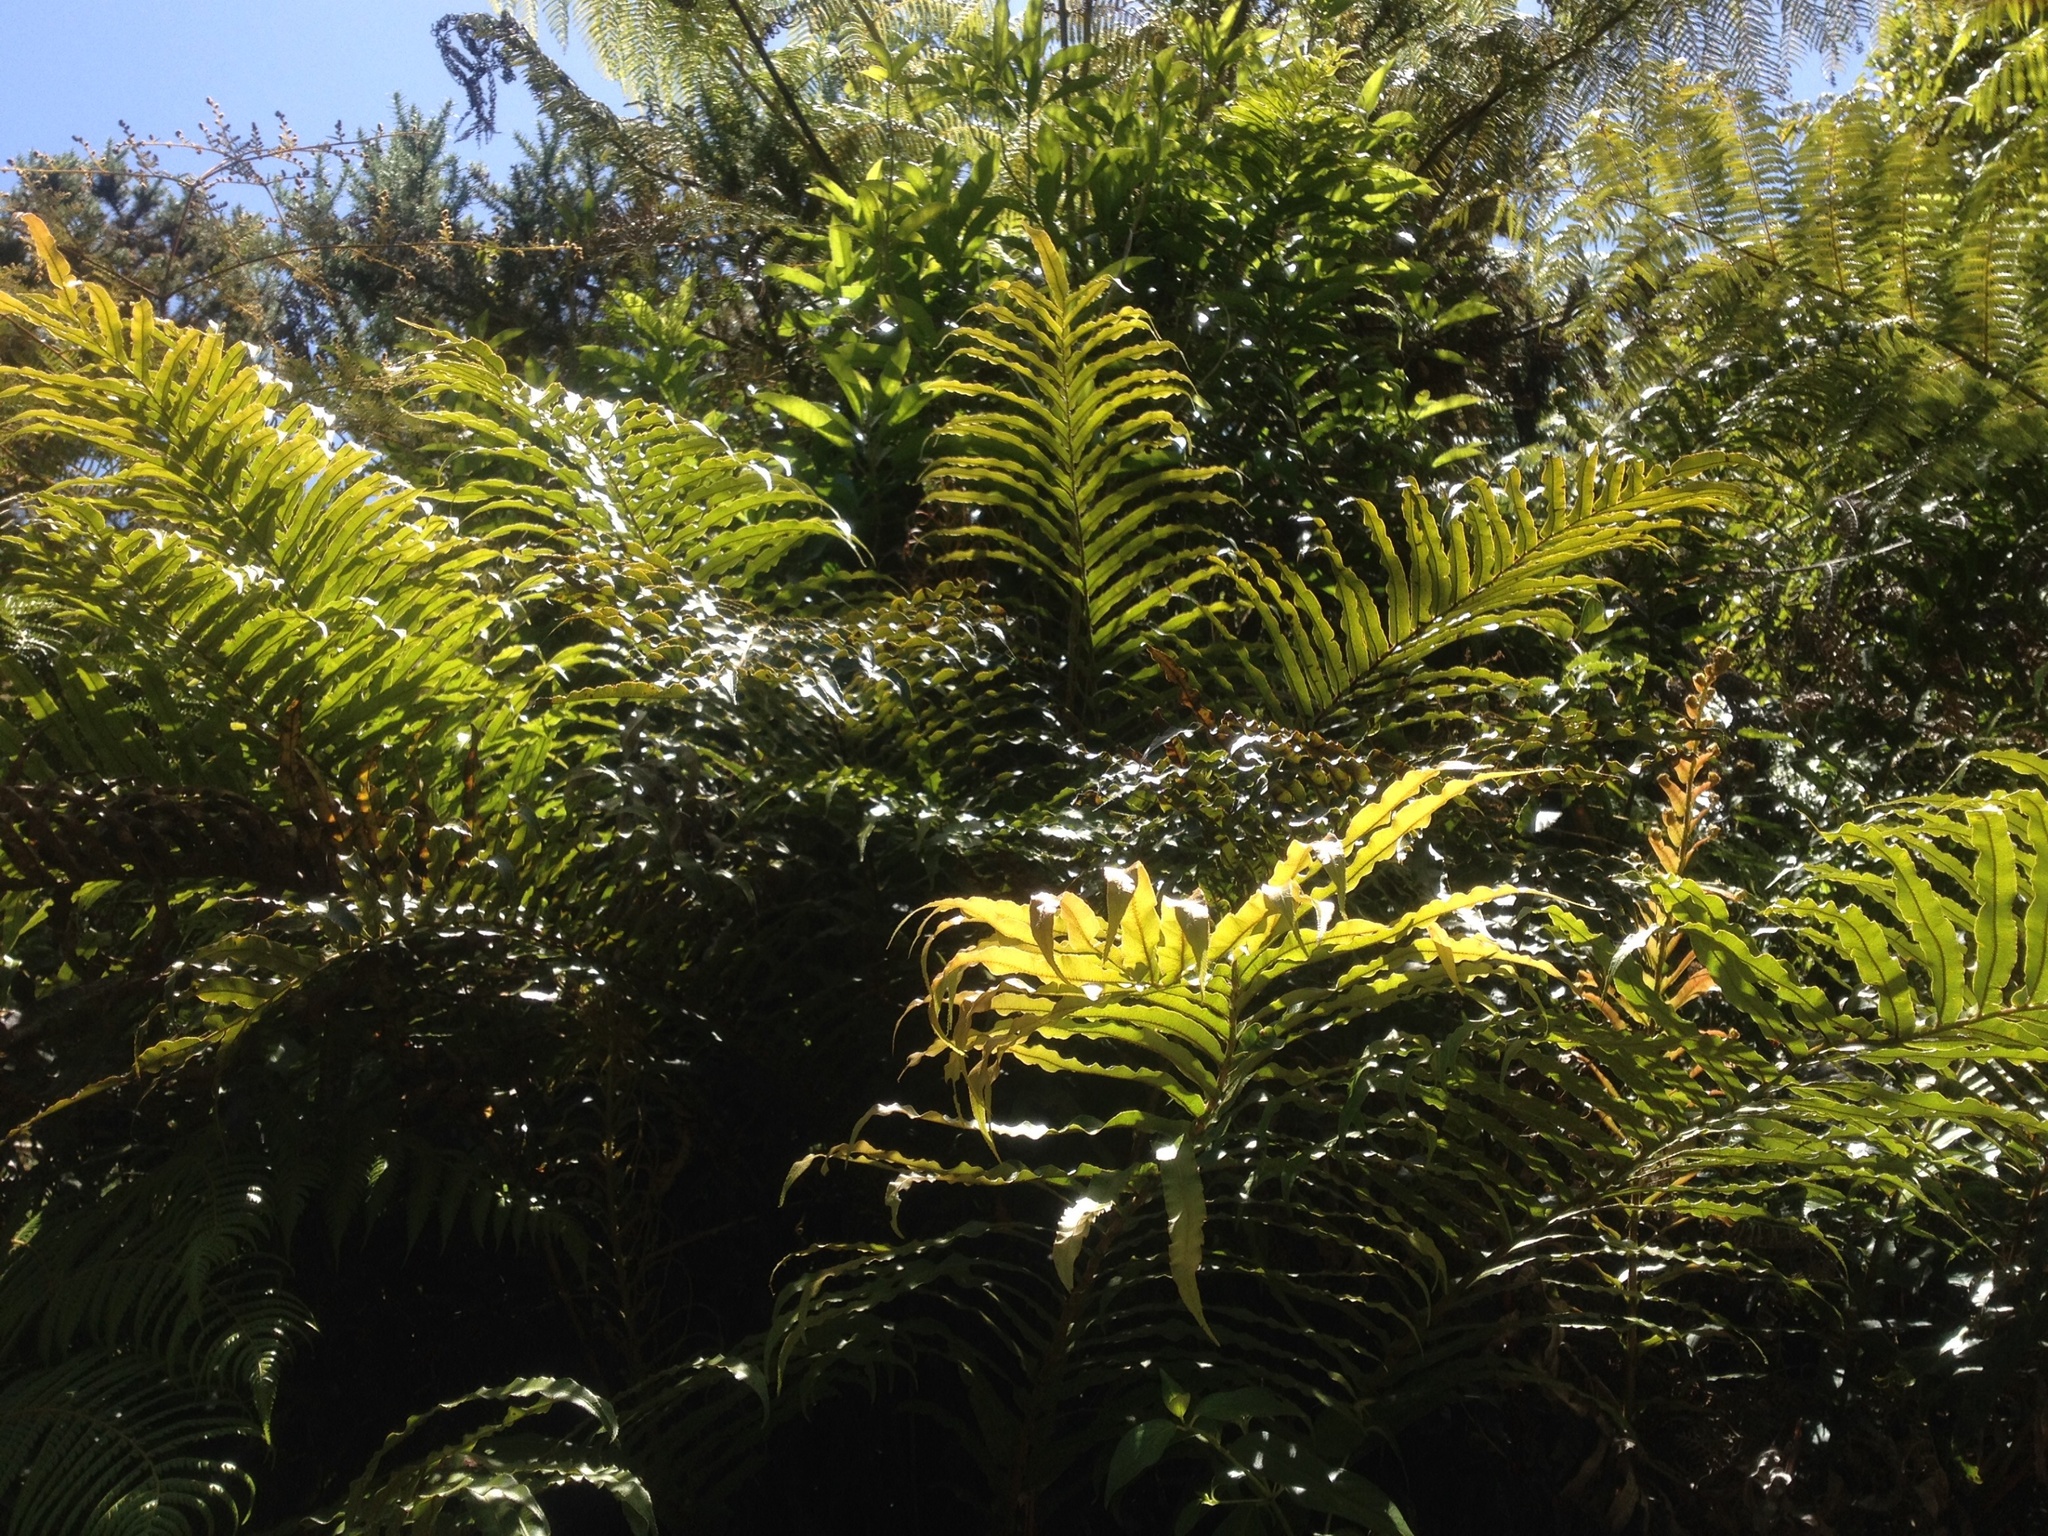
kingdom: Plantae
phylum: Tracheophyta
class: Polypodiopsida
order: Polypodiales
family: Blechnaceae
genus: Parablechnum
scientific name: Parablechnum novae-zelandiae
